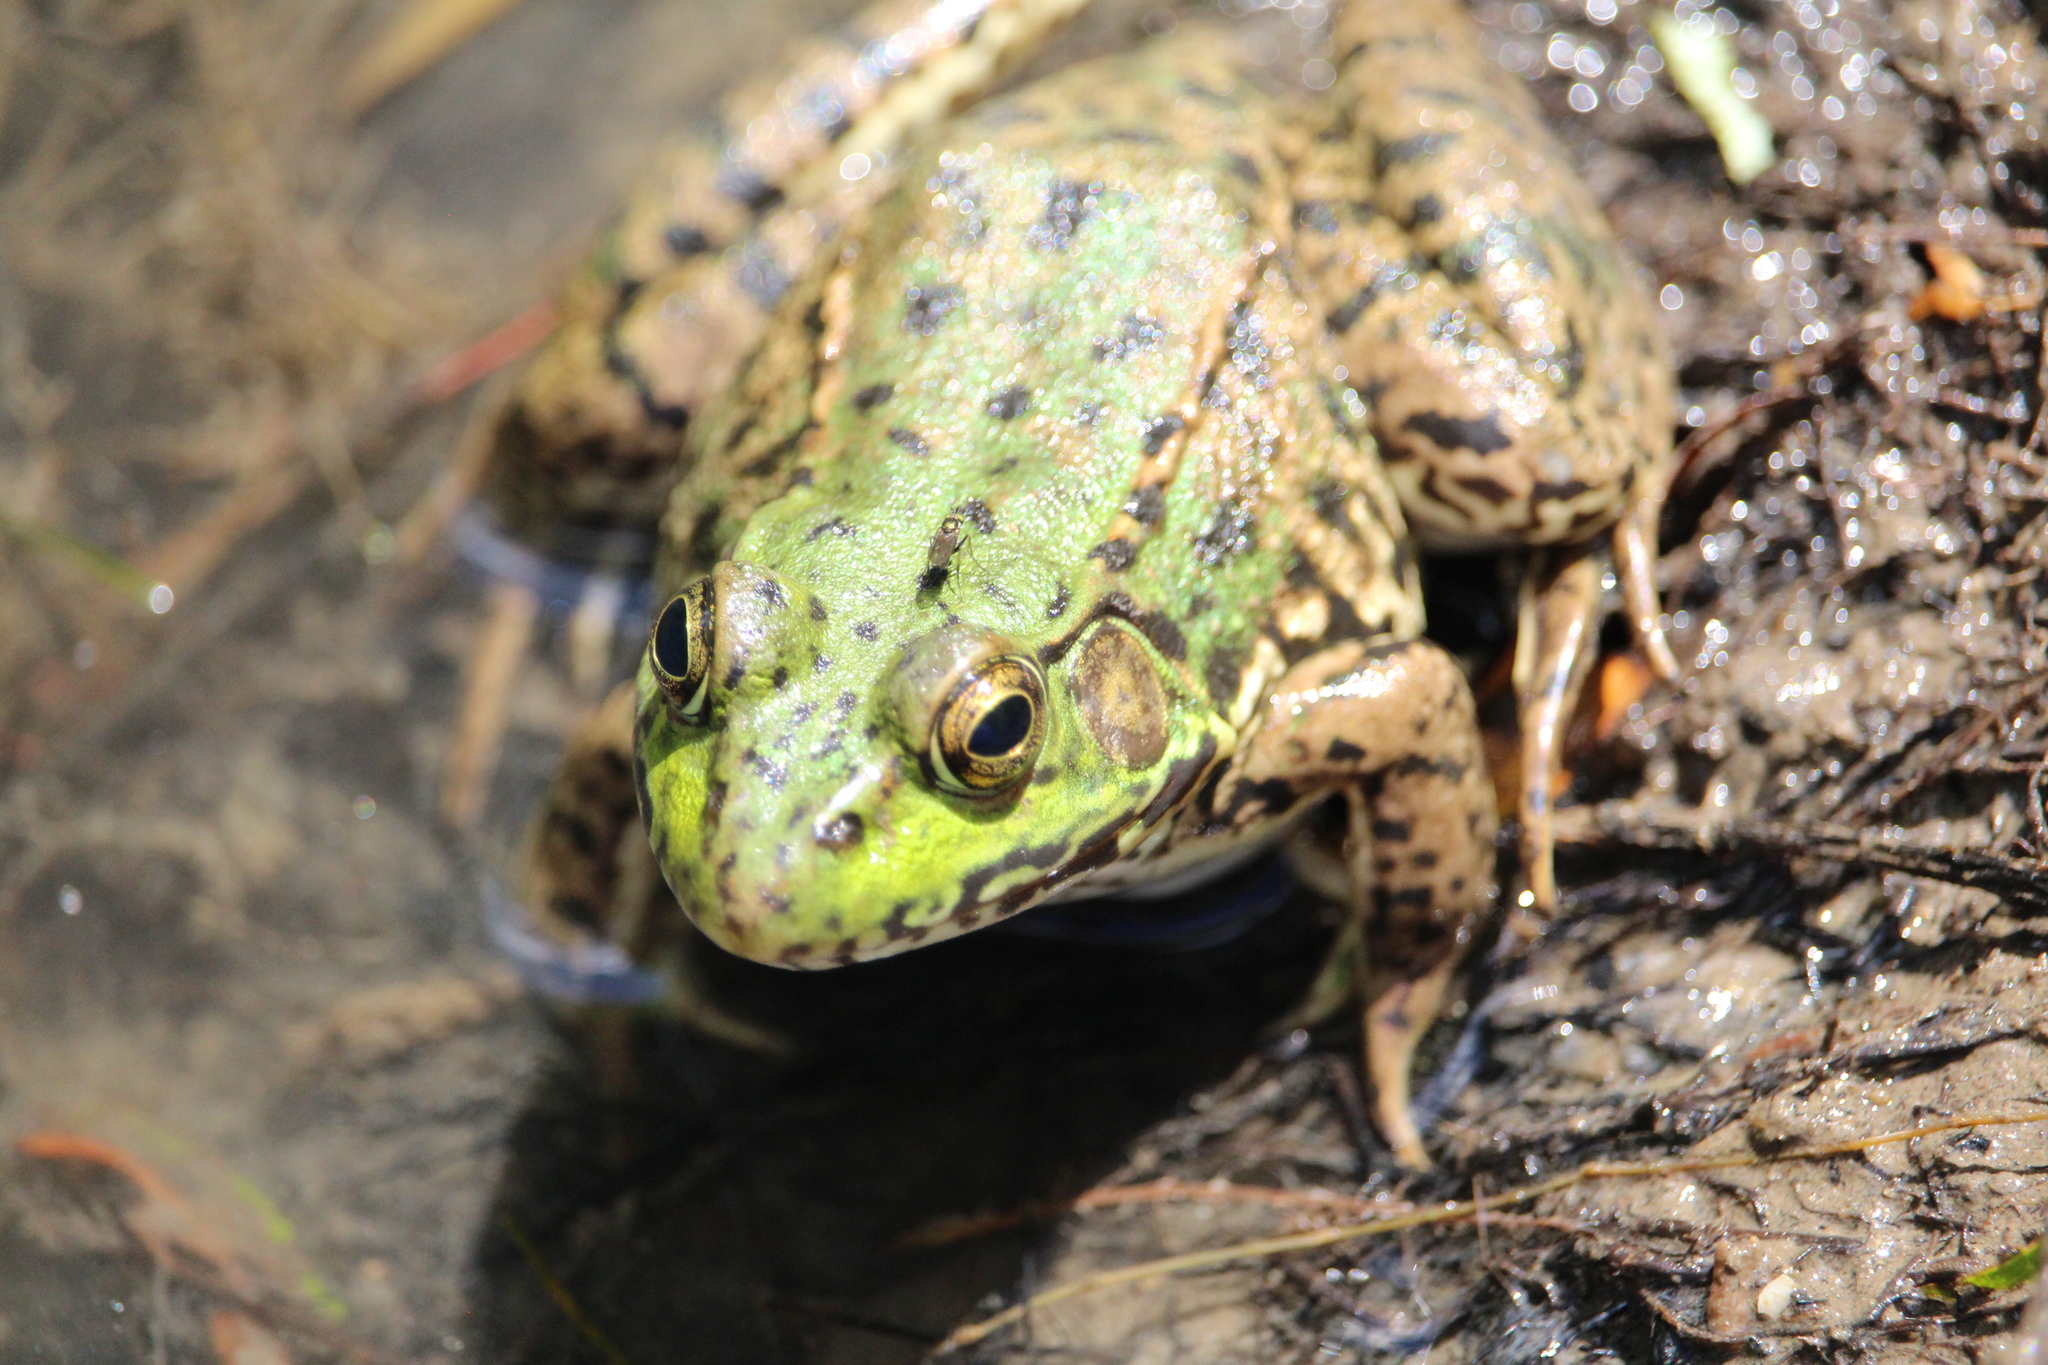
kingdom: Animalia
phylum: Chordata
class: Amphibia
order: Anura
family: Ranidae
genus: Lithobates
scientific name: Lithobates clamitans
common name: Green frog
